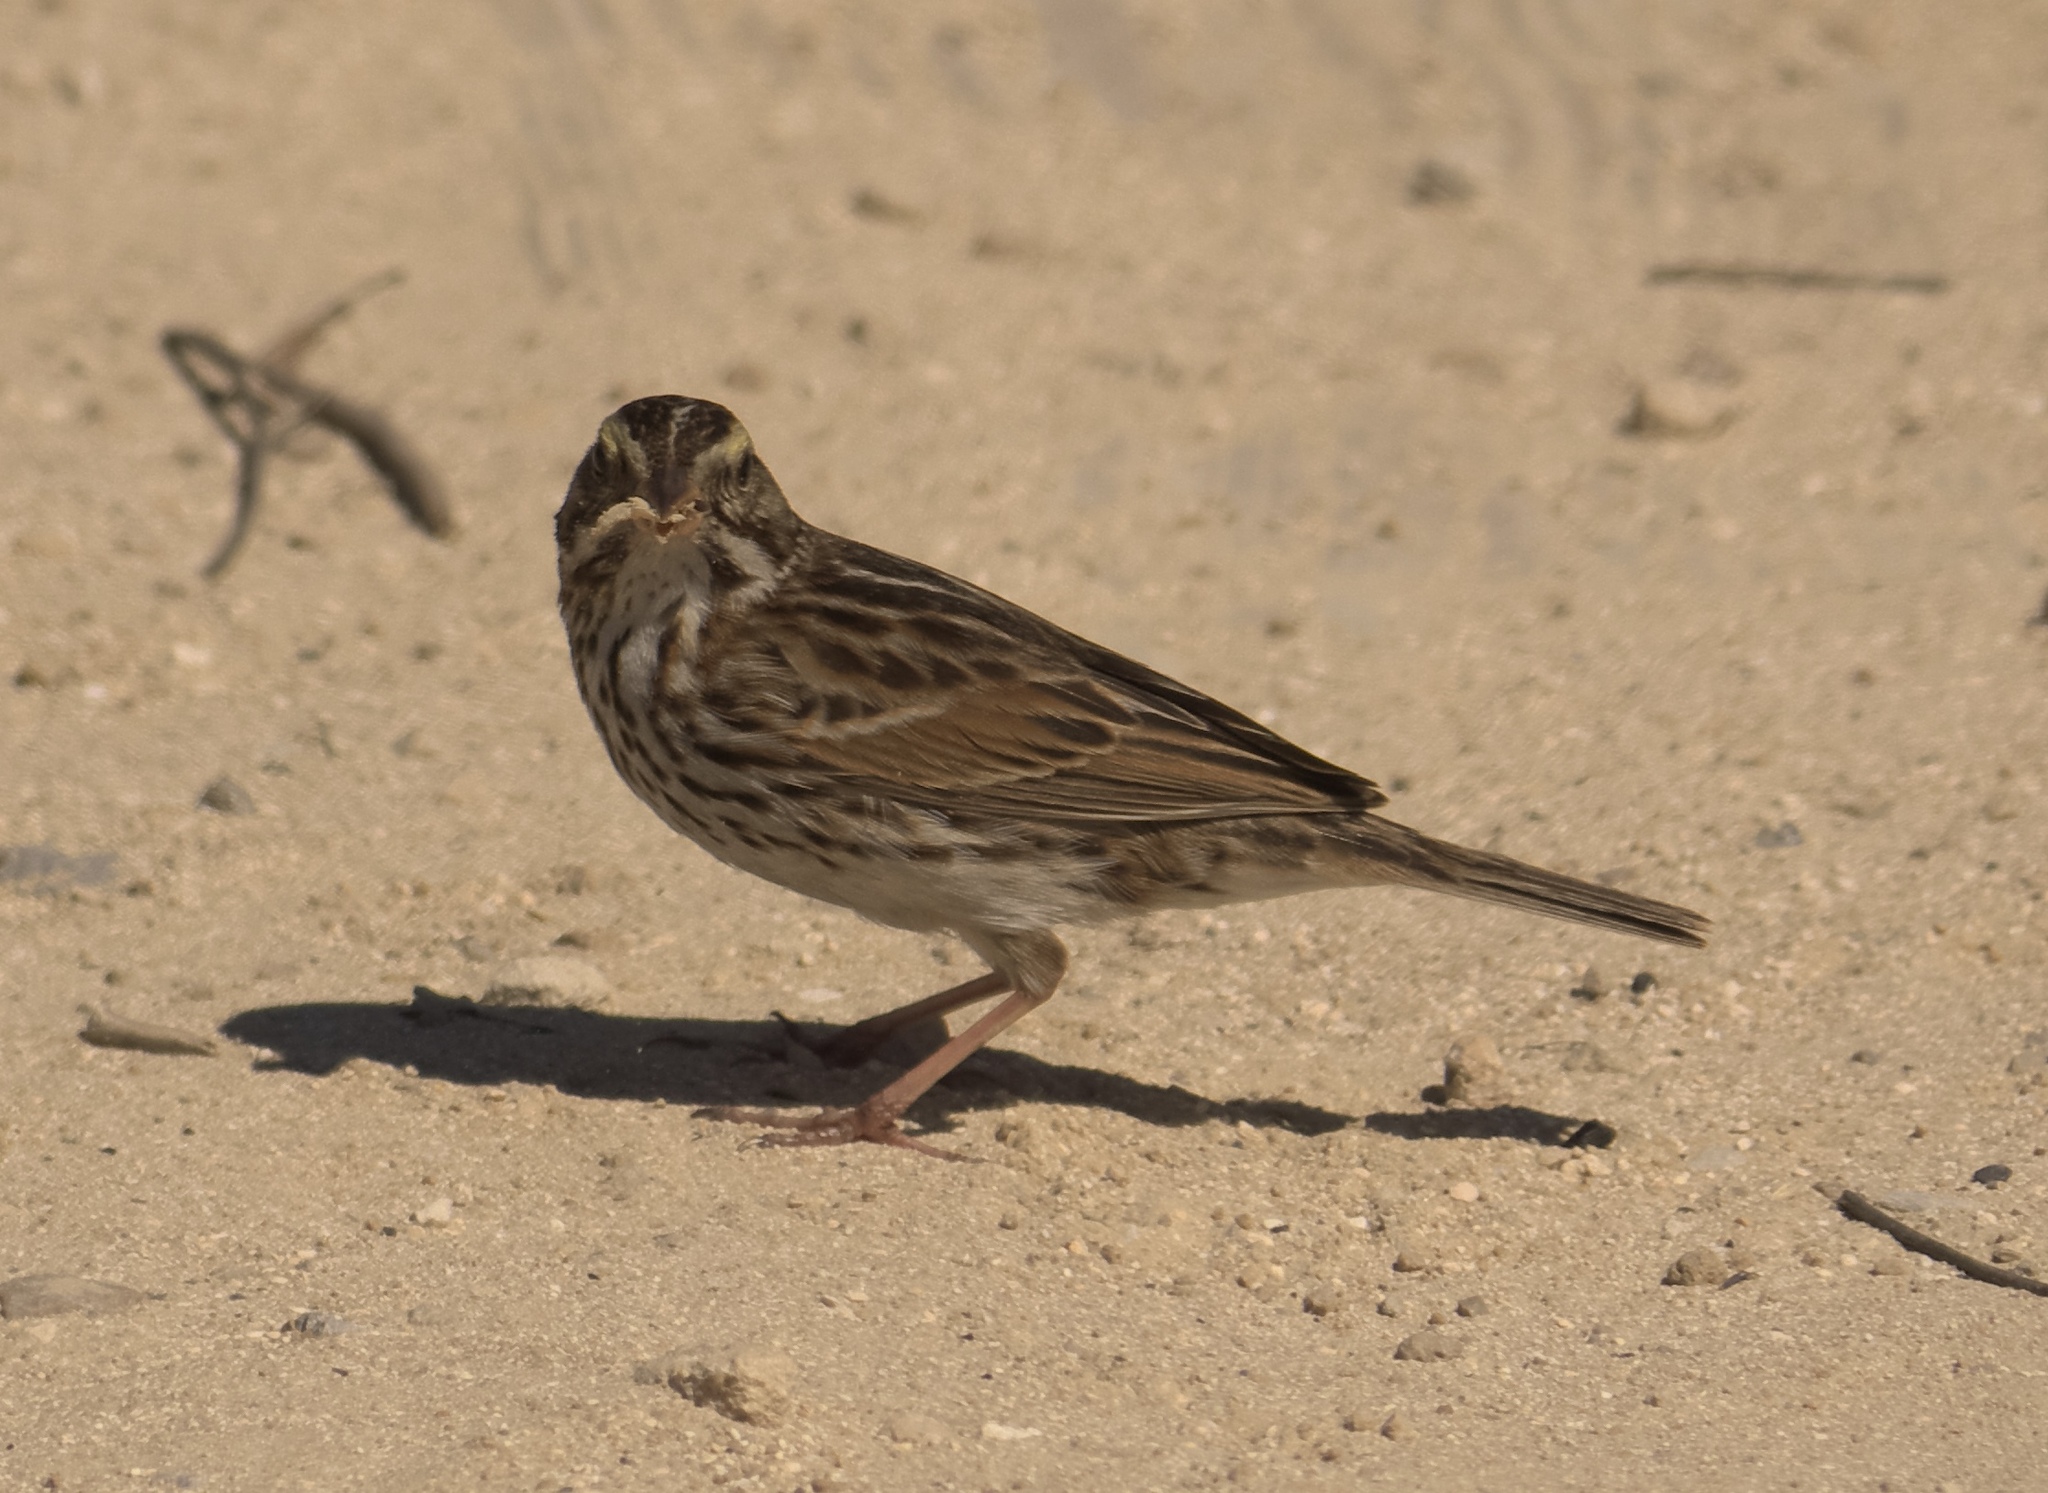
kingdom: Animalia
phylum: Chordata
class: Aves
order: Passeriformes
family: Passerellidae
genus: Passerculus
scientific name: Passerculus sandwichensis
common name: Savannah sparrow
